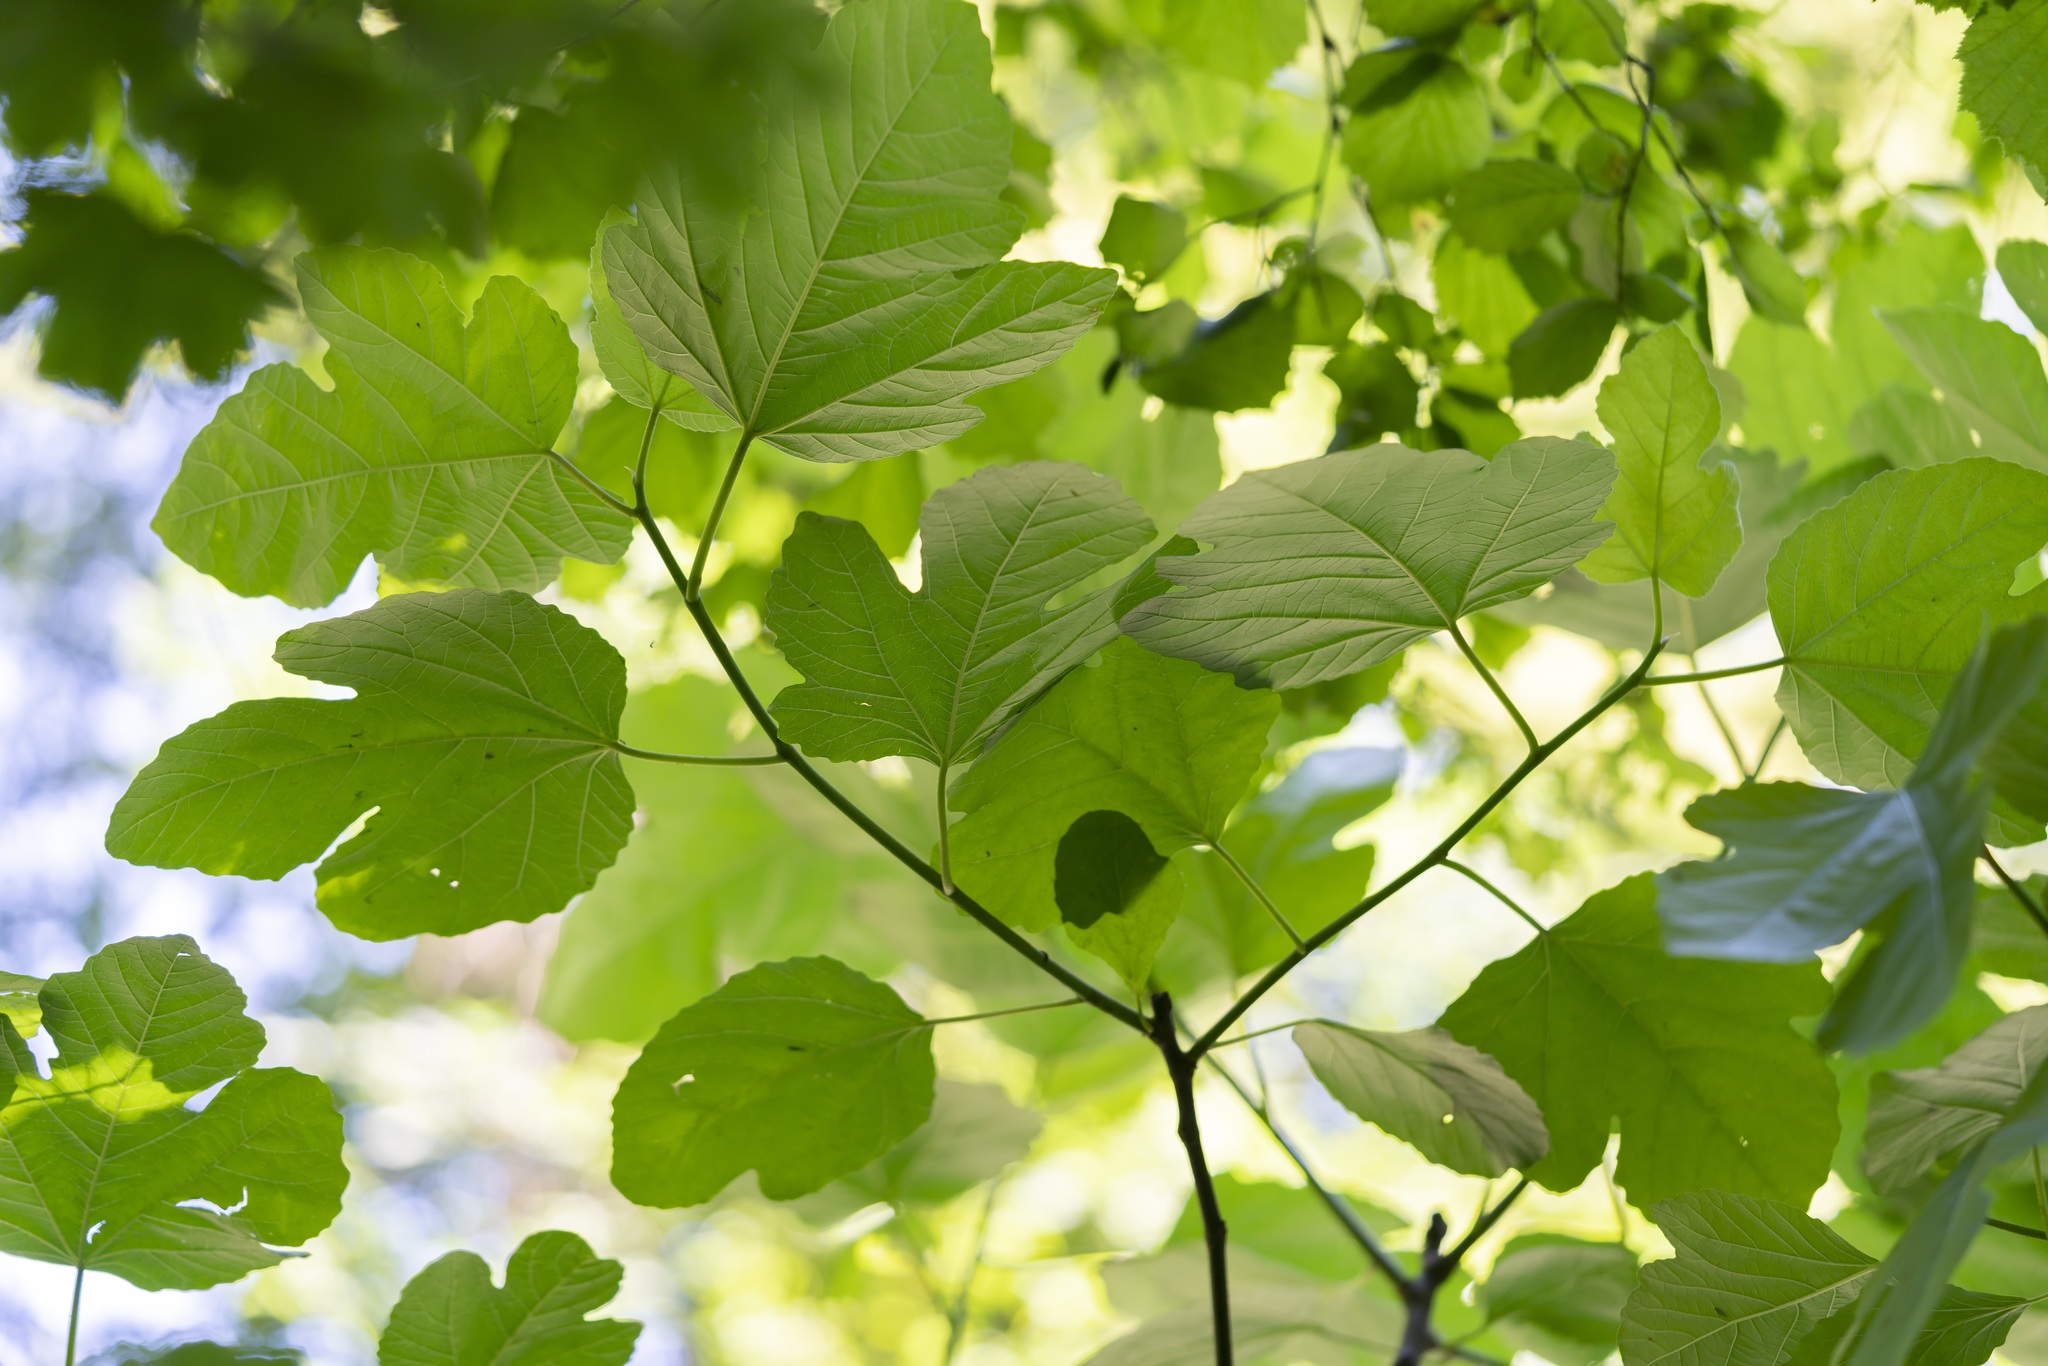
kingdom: Plantae
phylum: Tracheophyta
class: Magnoliopsida
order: Rosales
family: Moraceae
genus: Ficus
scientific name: Ficus carica
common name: Fig
